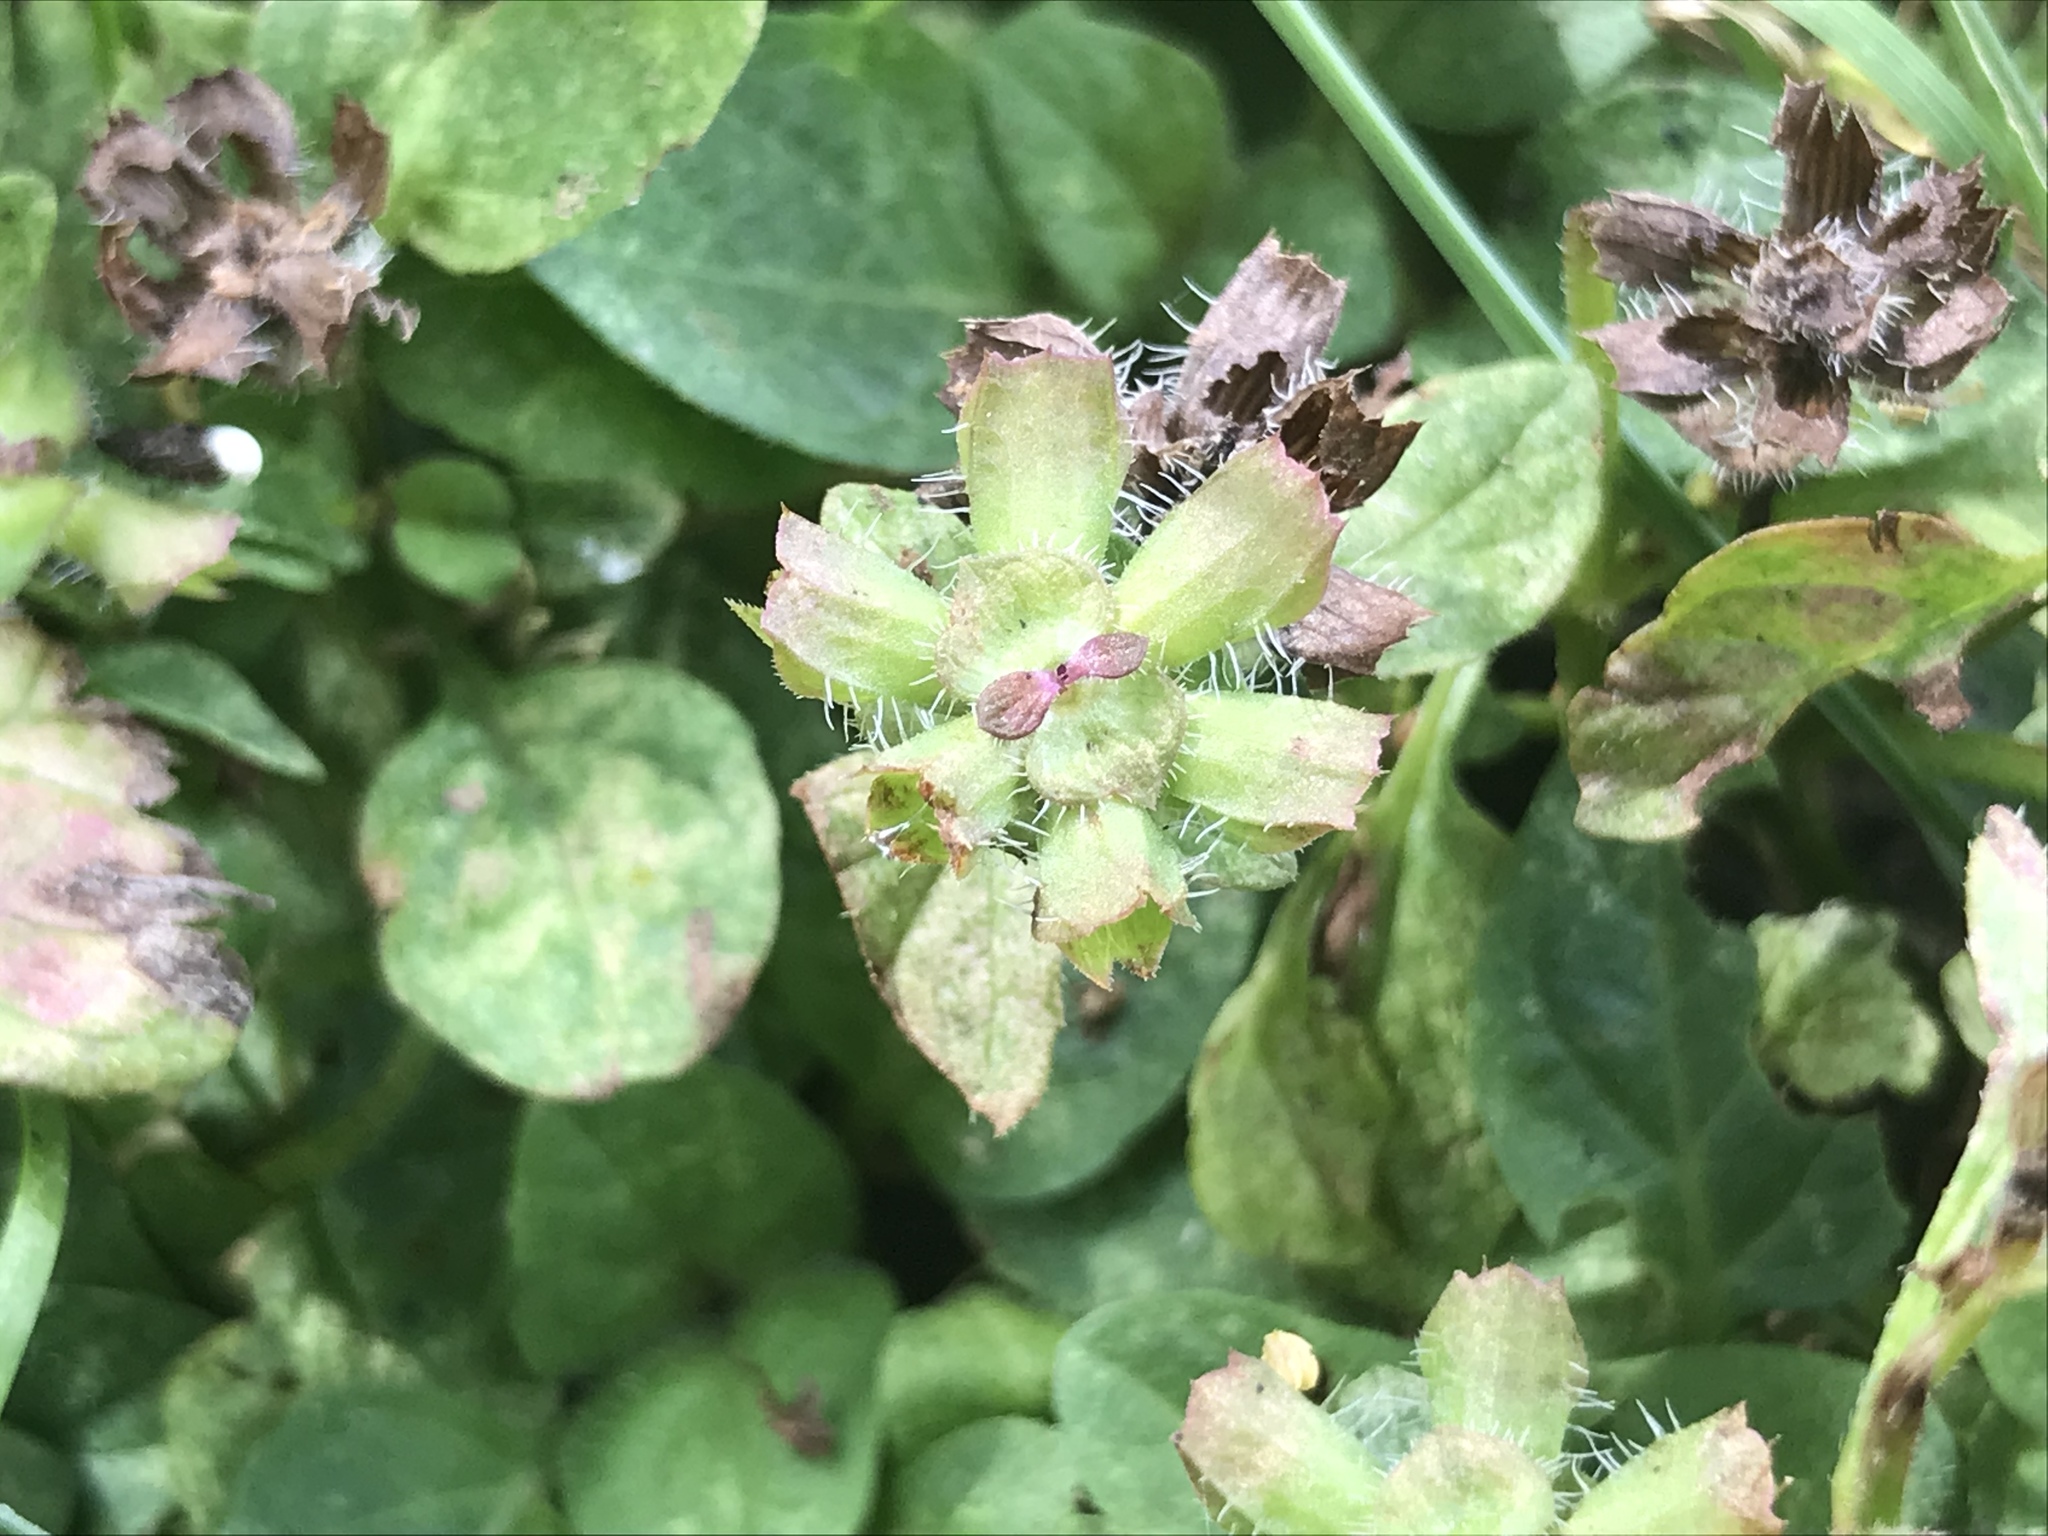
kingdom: Plantae
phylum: Tracheophyta
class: Magnoliopsida
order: Lamiales
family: Lamiaceae
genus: Prunella
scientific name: Prunella vulgaris
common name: Heal-all
